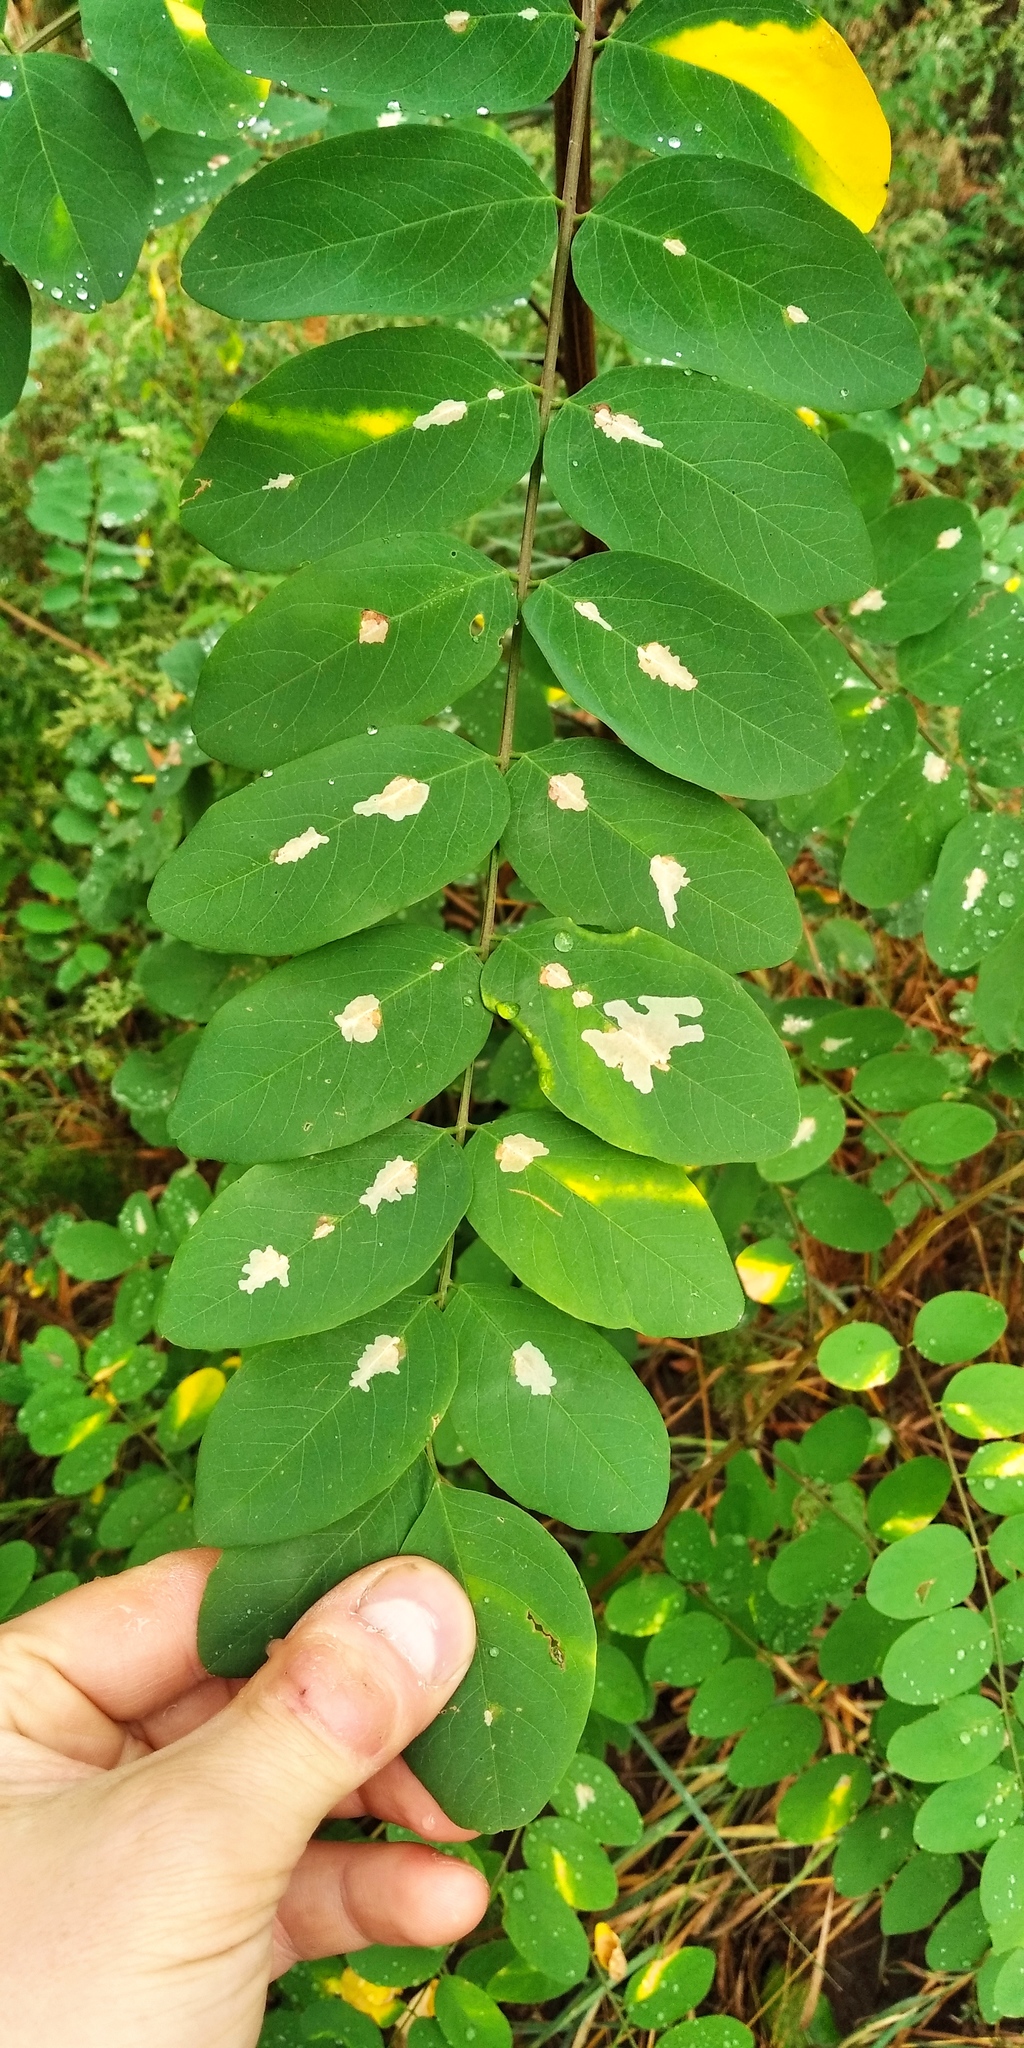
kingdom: Animalia
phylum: Arthropoda
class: Insecta
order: Lepidoptera
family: Gracillariidae
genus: Parectopa
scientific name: Parectopa robiniella
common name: Locust digitate leafminer
